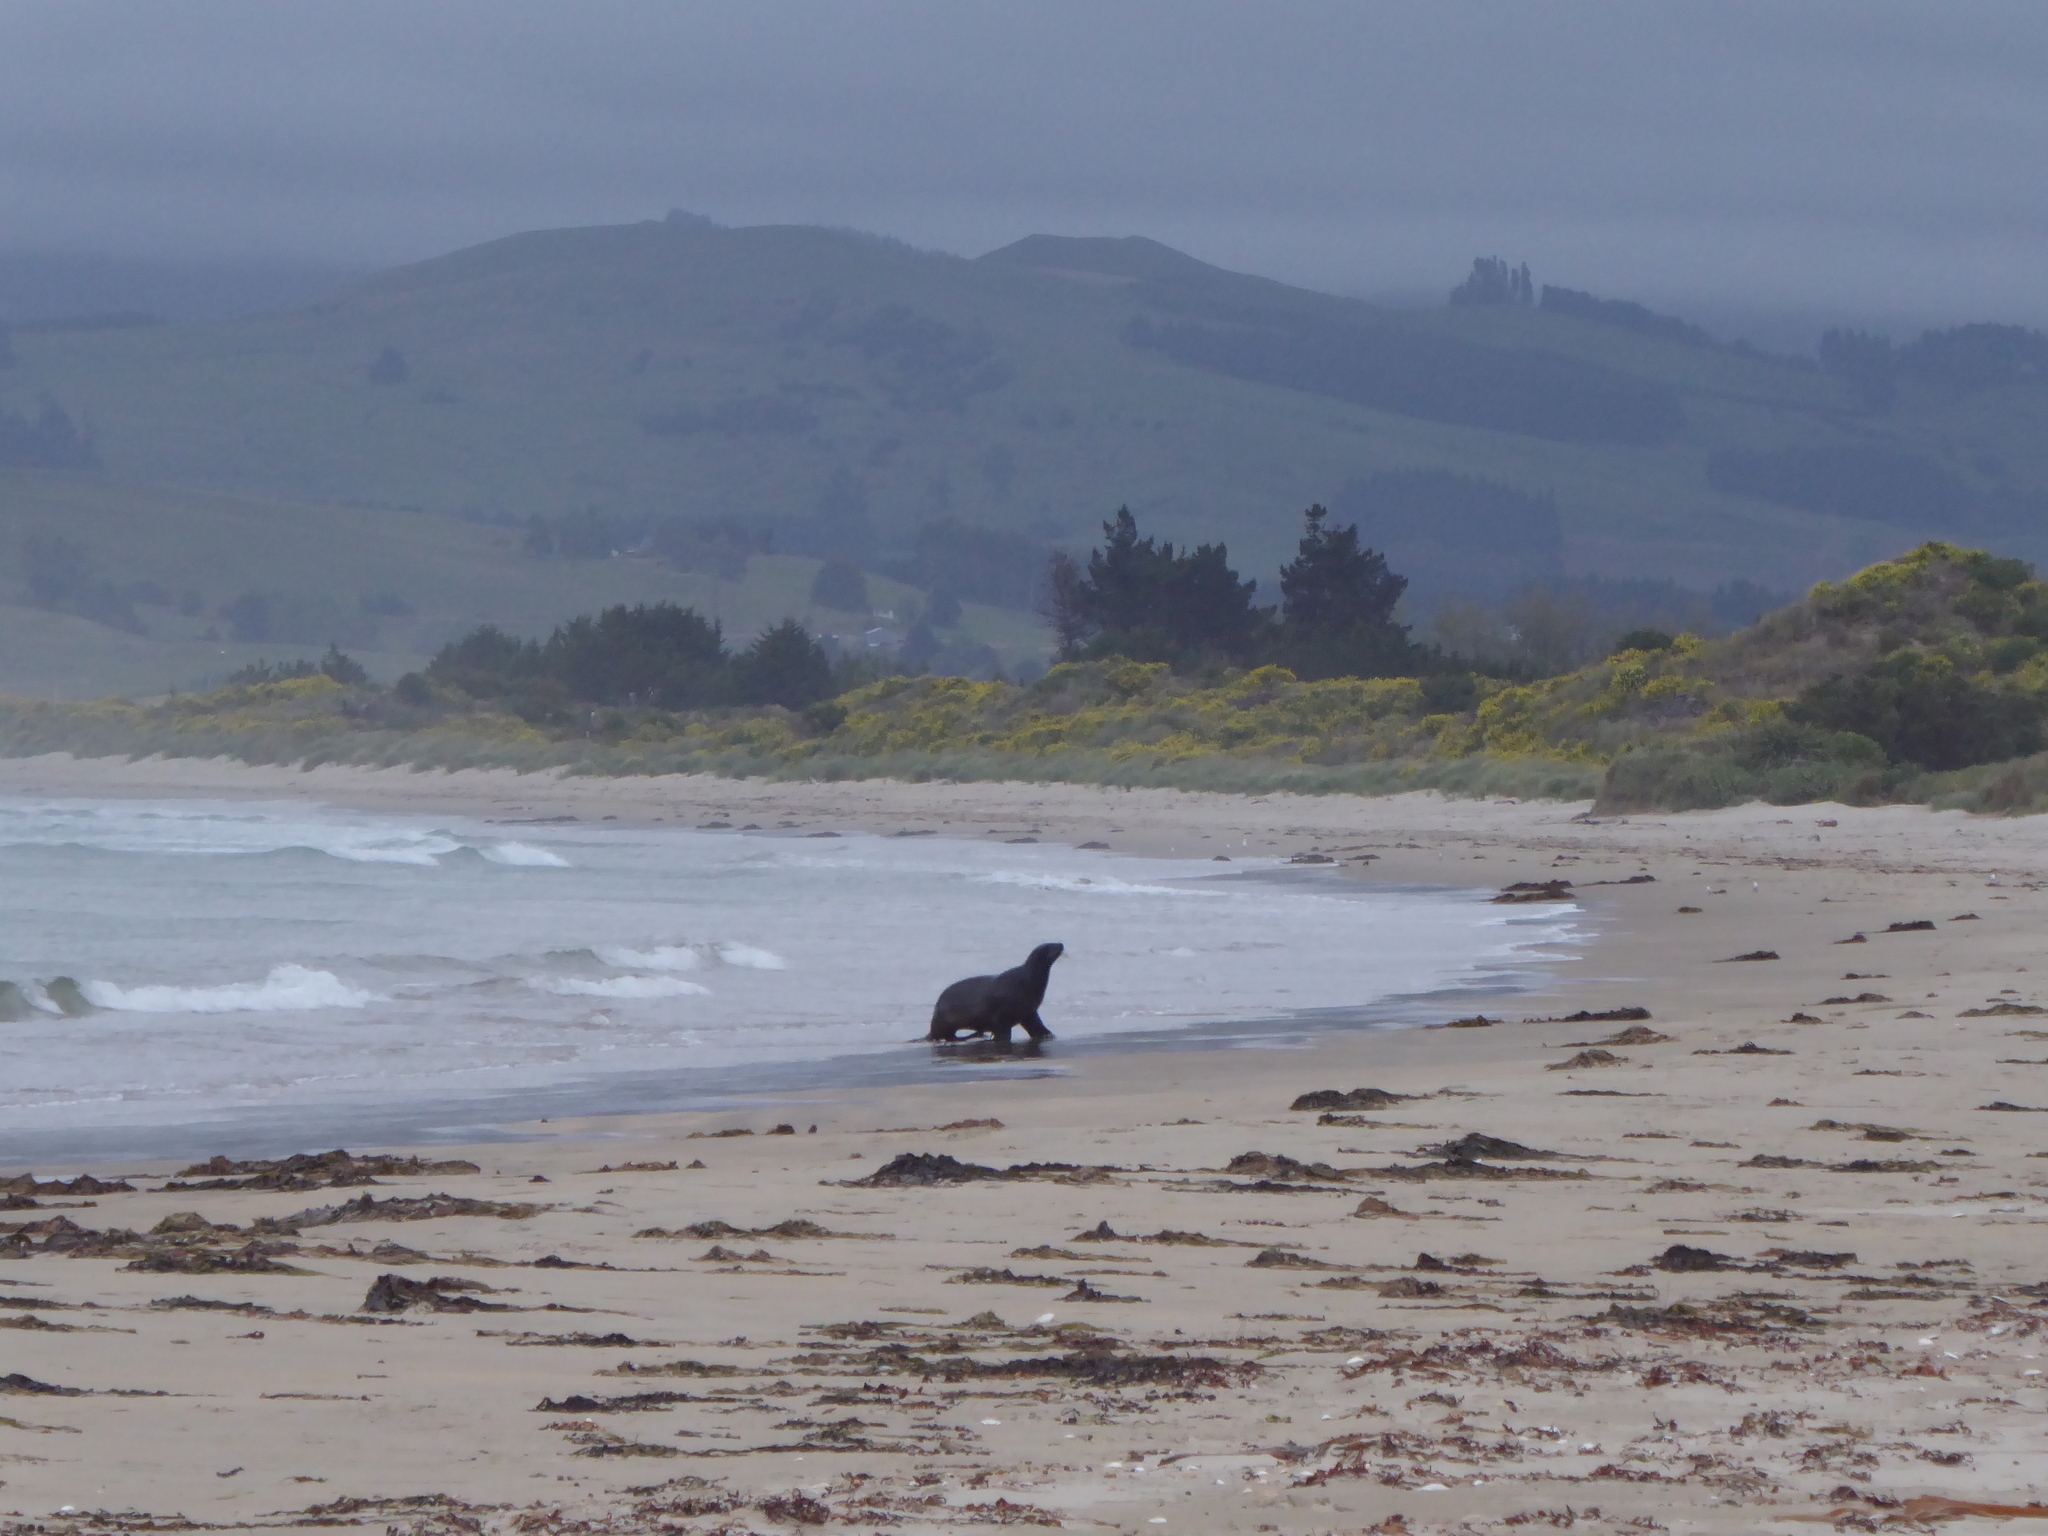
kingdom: Animalia
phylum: Chordata
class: Mammalia
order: Carnivora
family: Otariidae
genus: Phocarctos
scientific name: Phocarctos hookeri
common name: New zealand sea lion
